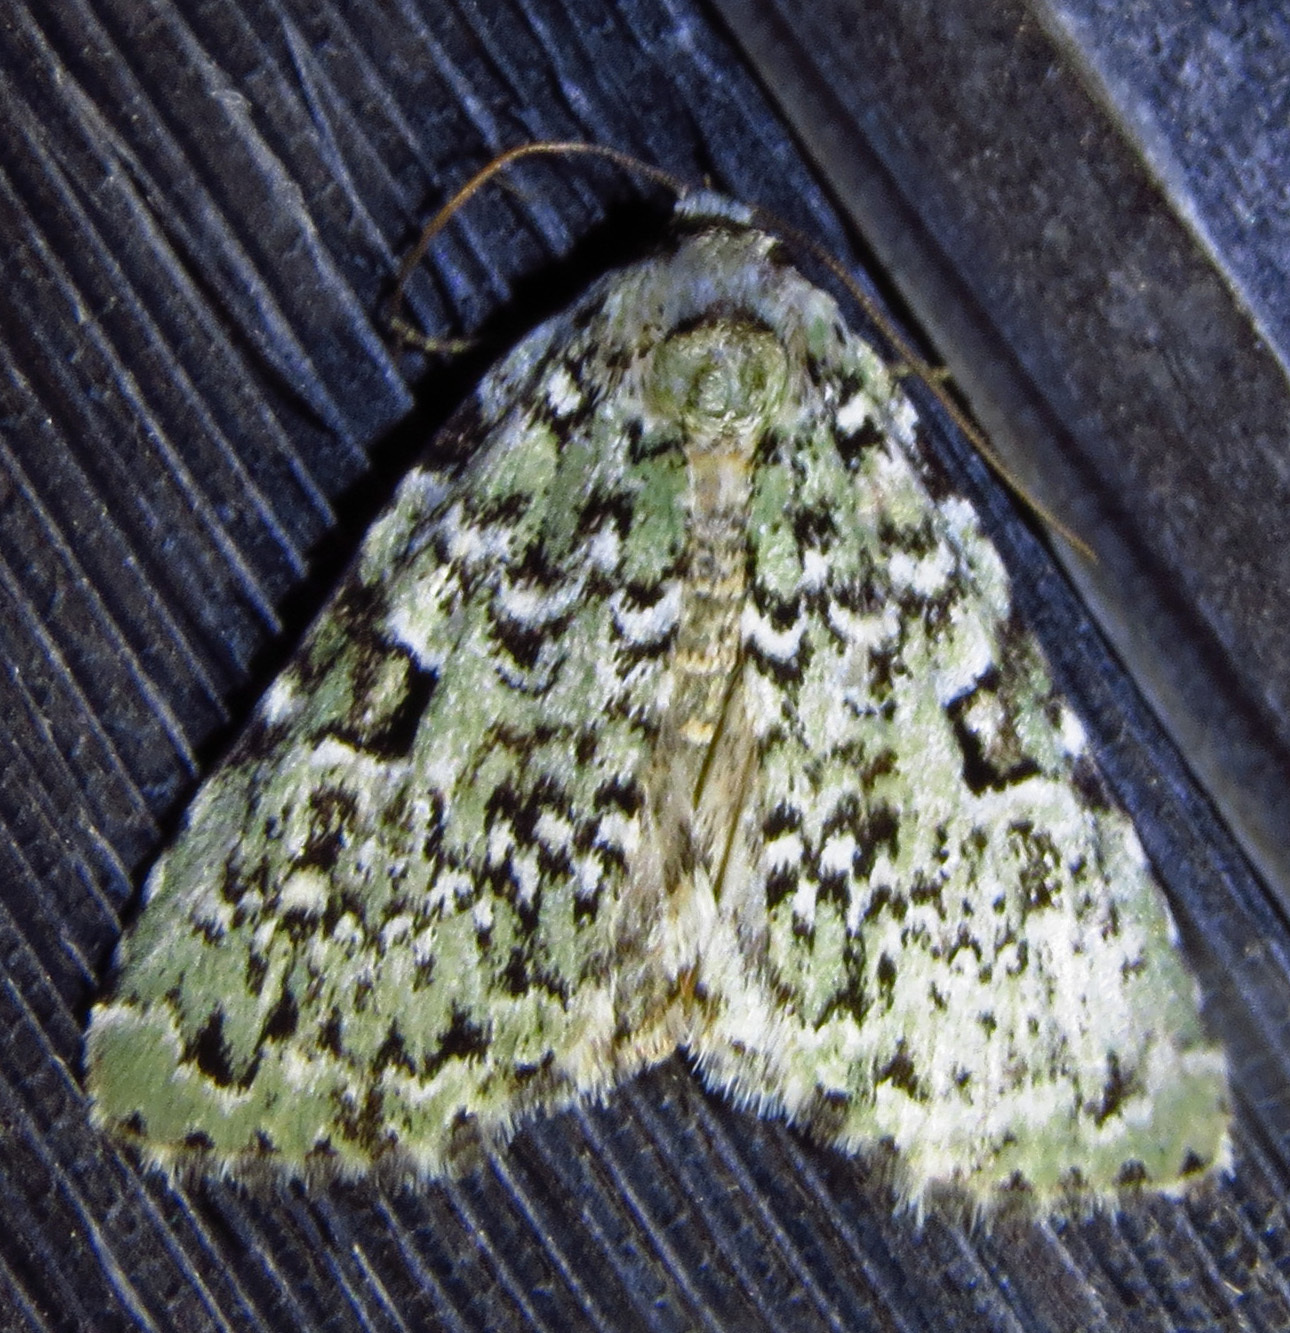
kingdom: Animalia
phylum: Arthropoda
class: Insecta
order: Lepidoptera
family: Noctuidae
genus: Leuconycta
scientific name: Leuconycta diphteroides
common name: Green leuconycta moth
